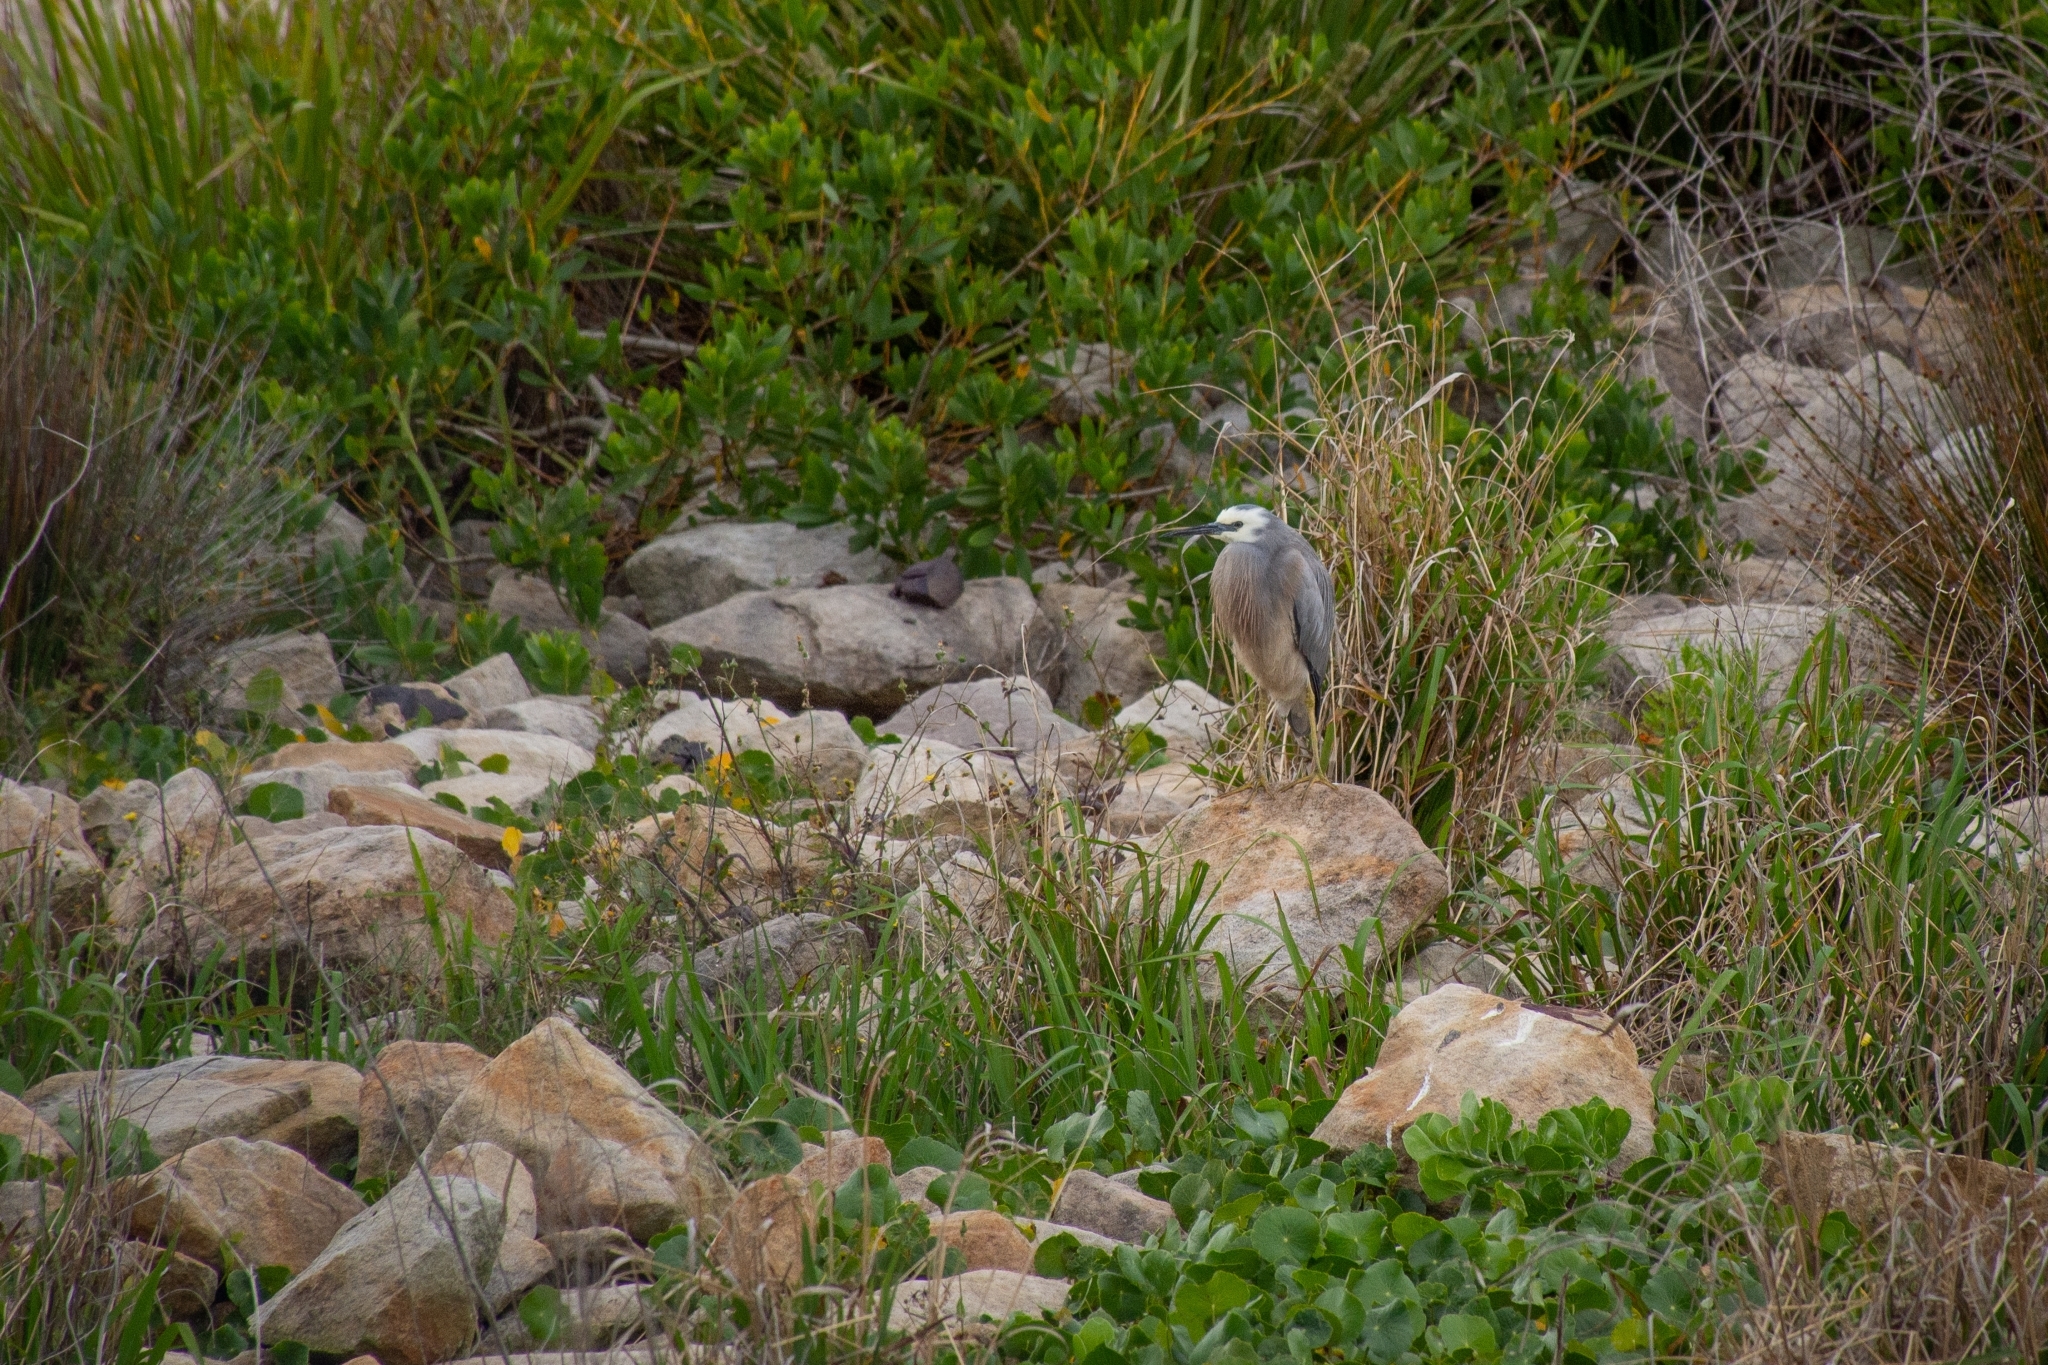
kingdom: Animalia
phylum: Chordata
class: Aves
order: Pelecaniformes
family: Ardeidae
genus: Egretta
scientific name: Egretta novaehollandiae
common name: White-faced heron
